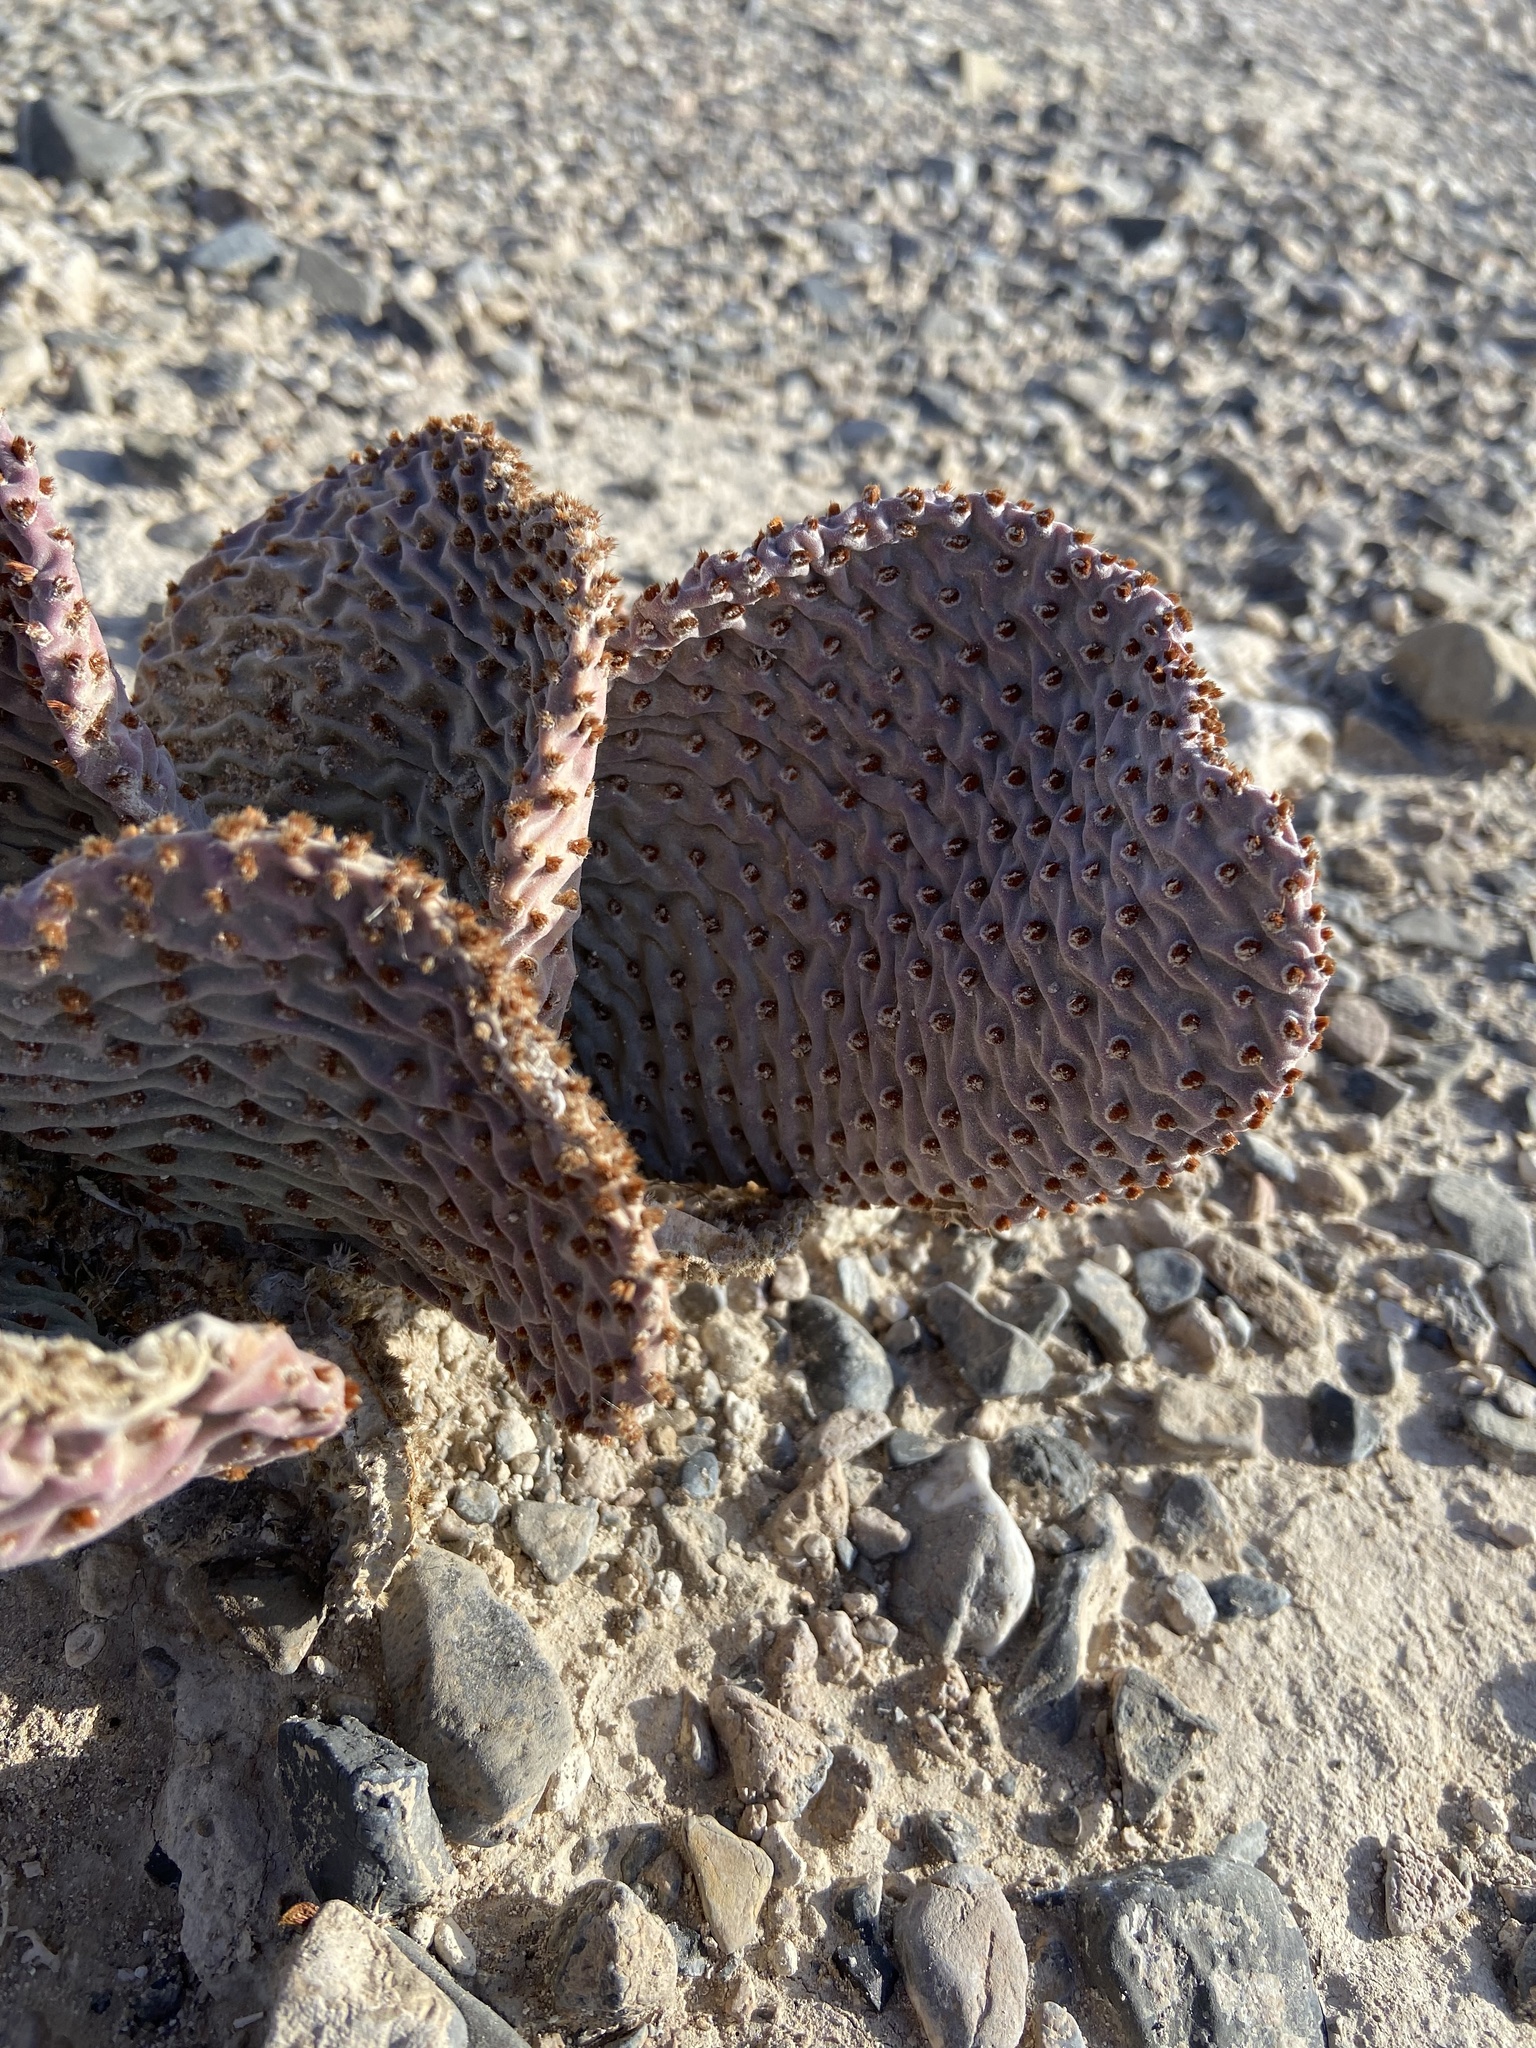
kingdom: Plantae
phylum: Tracheophyta
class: Magnoliopsida
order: Caryophyllales
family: Cactaceae
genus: Opuntia
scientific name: Opuntia basilaris
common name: Beavertail prickly-pear
